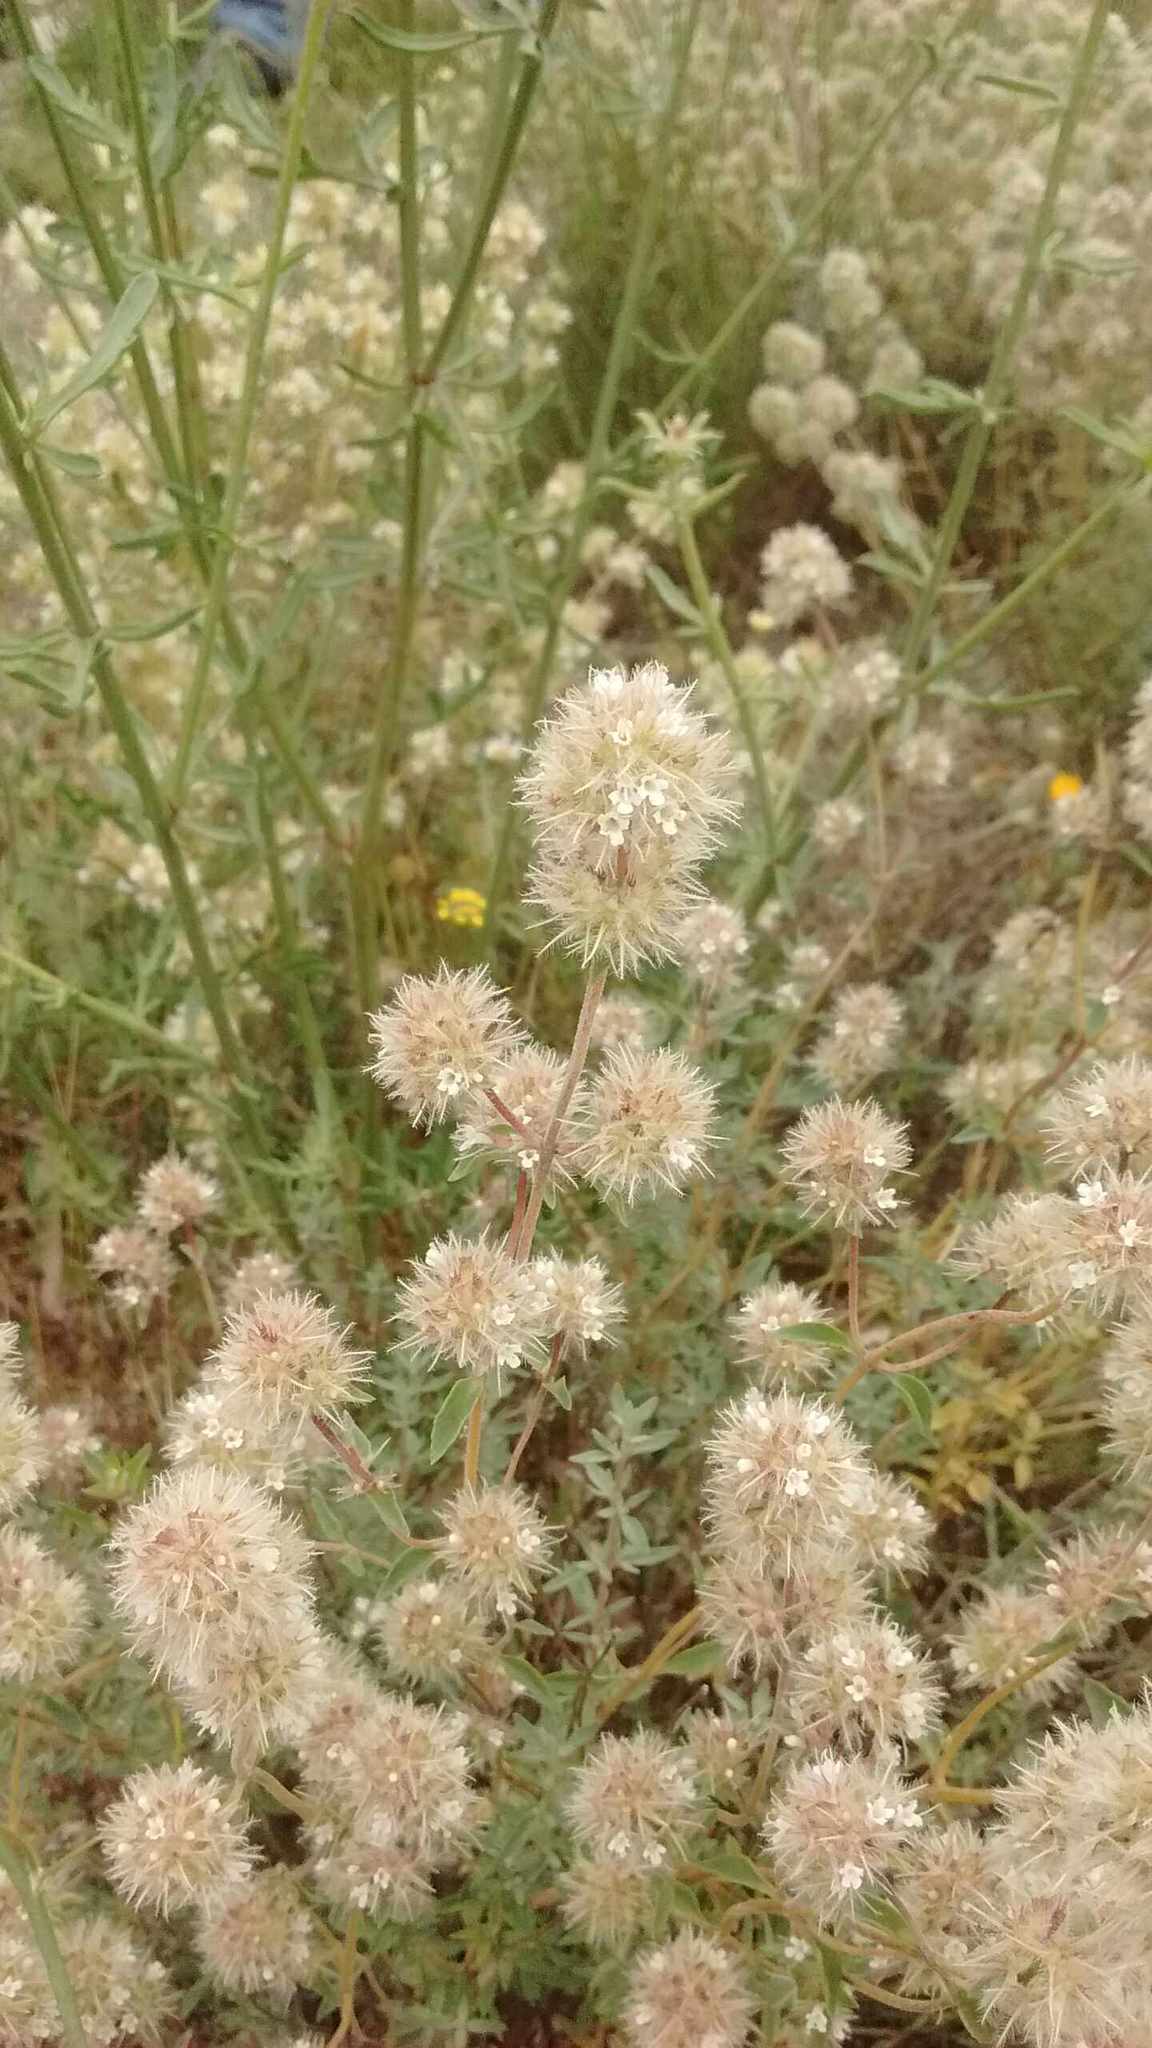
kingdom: Plantae
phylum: Tracheophyta
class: Magnoliopsida
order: Lamiales
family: Lamiaceae
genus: Thymus
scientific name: Thymus mastichina
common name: Mastic thyme
